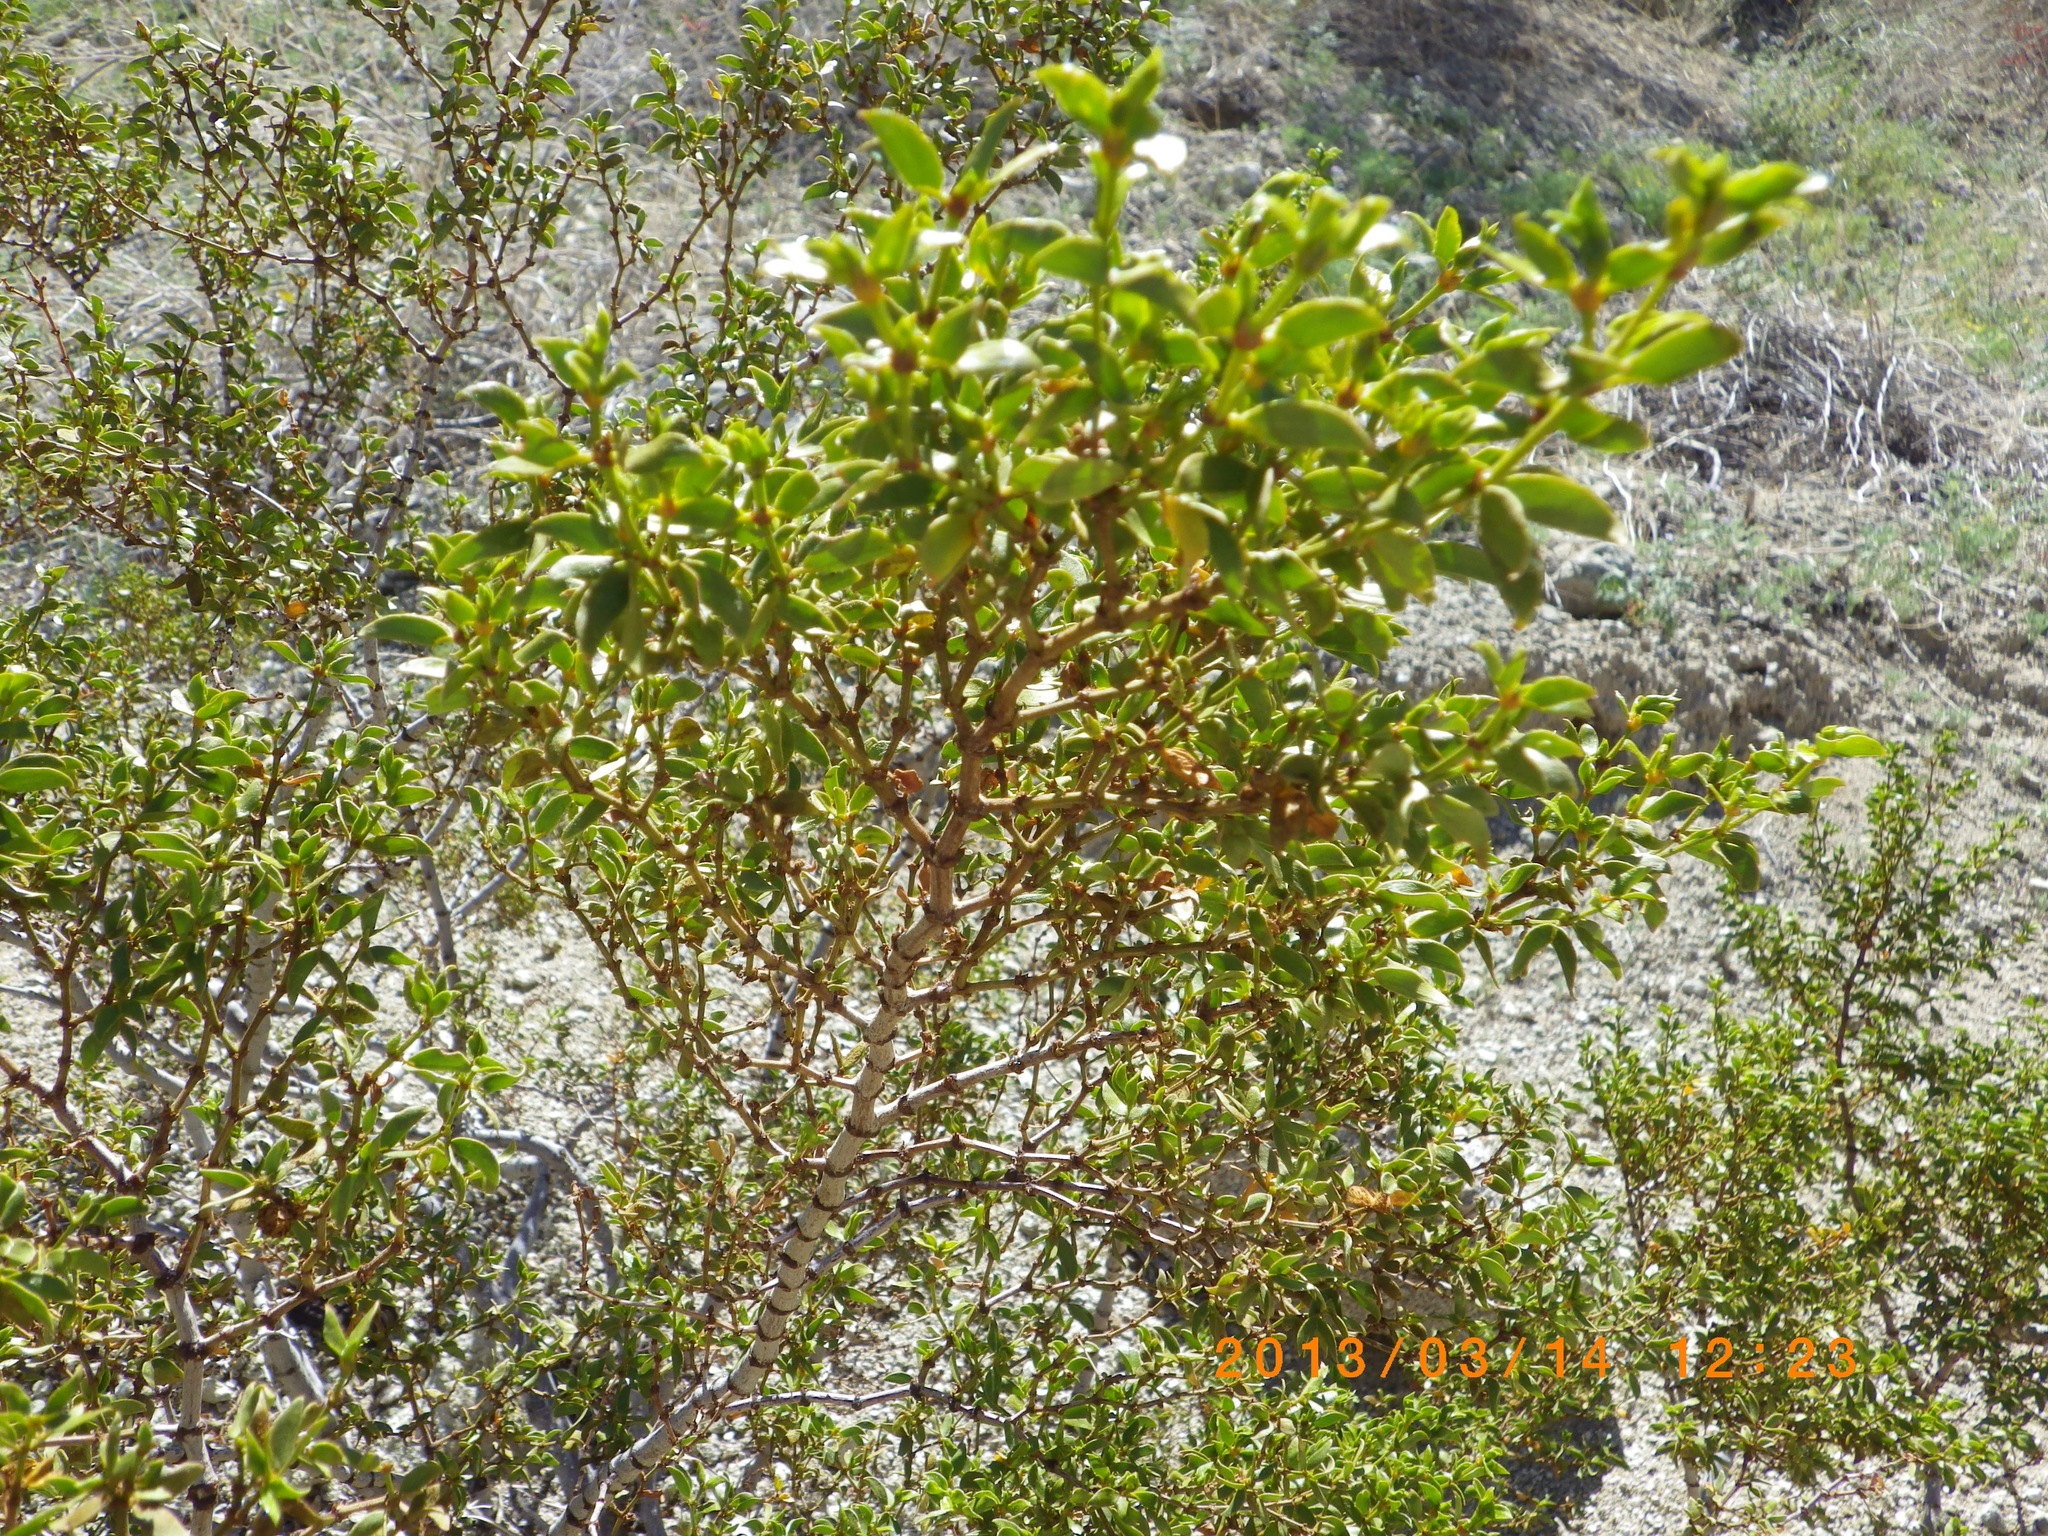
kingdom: Plantae
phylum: Tracheophyta
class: Magnoliopsida
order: Zygophyllales
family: Zygophyllaceae
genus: Larrea
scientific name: Larrea tridentata
